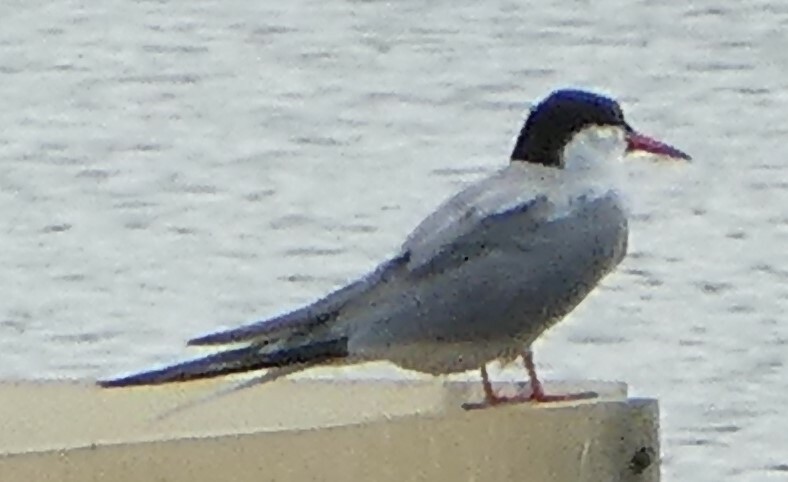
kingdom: Animalia
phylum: Chordata
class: Aves
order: Charadriiformes
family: Laridae
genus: Sterna
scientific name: Sterna hirundo
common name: Common tern
